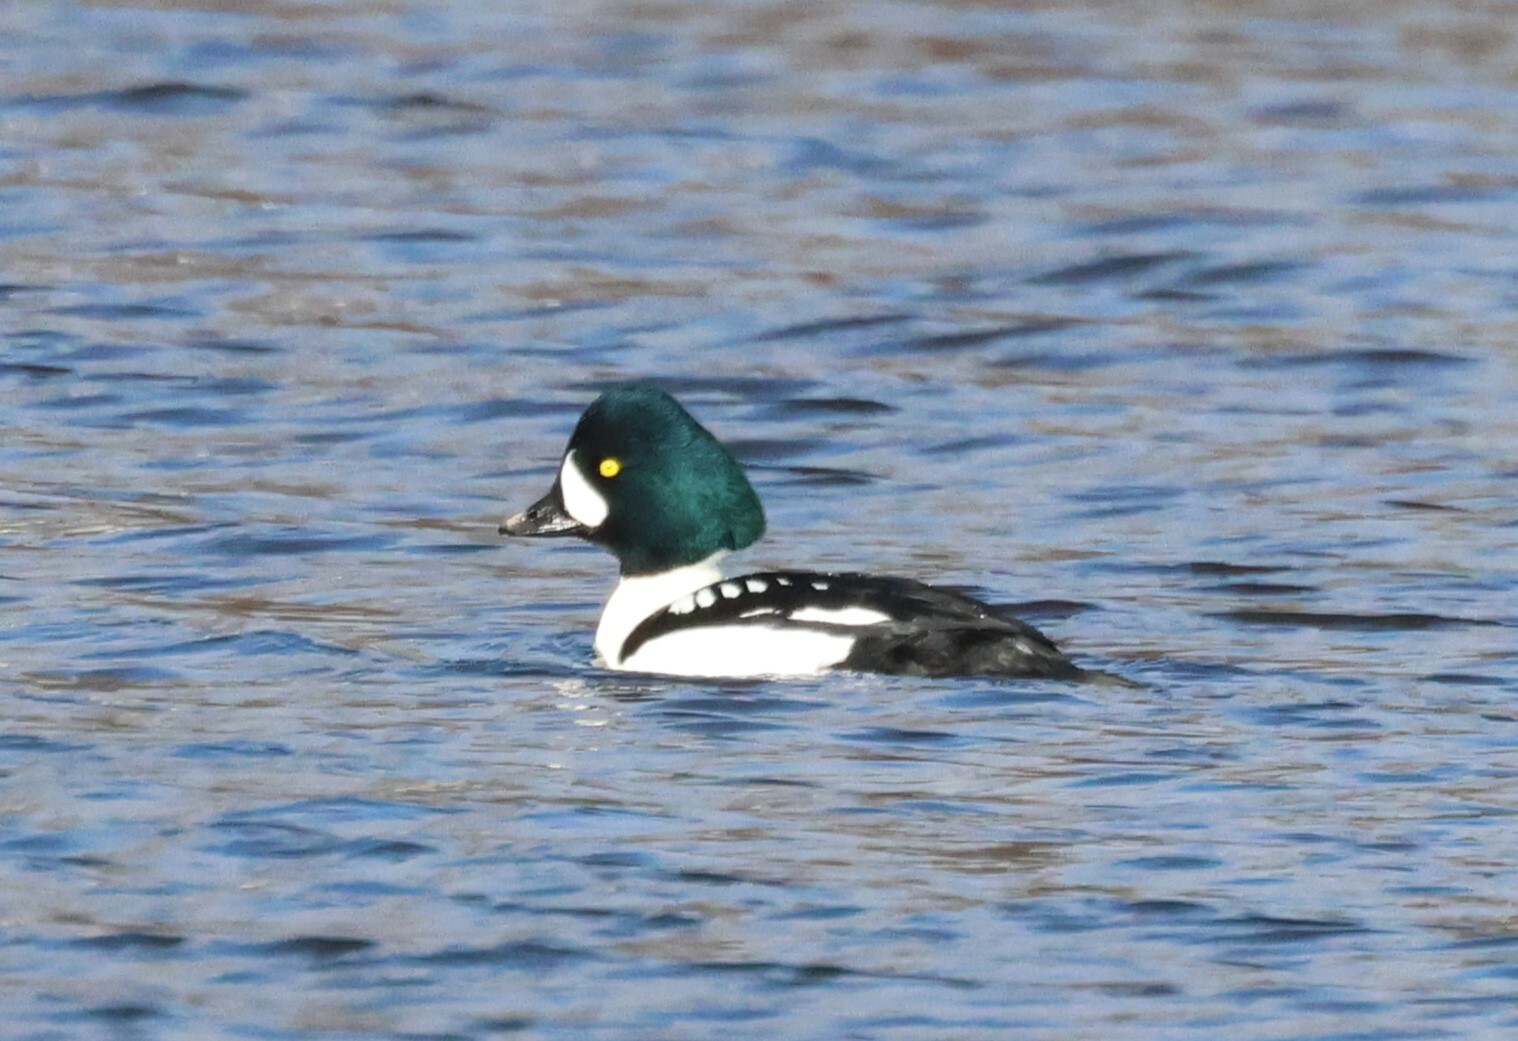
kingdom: Animalia
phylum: Chordata
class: Aves
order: Anseriformes
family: Anatidae
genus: Bucephala
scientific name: Bucephala islandica
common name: Barrow's goldeneye
